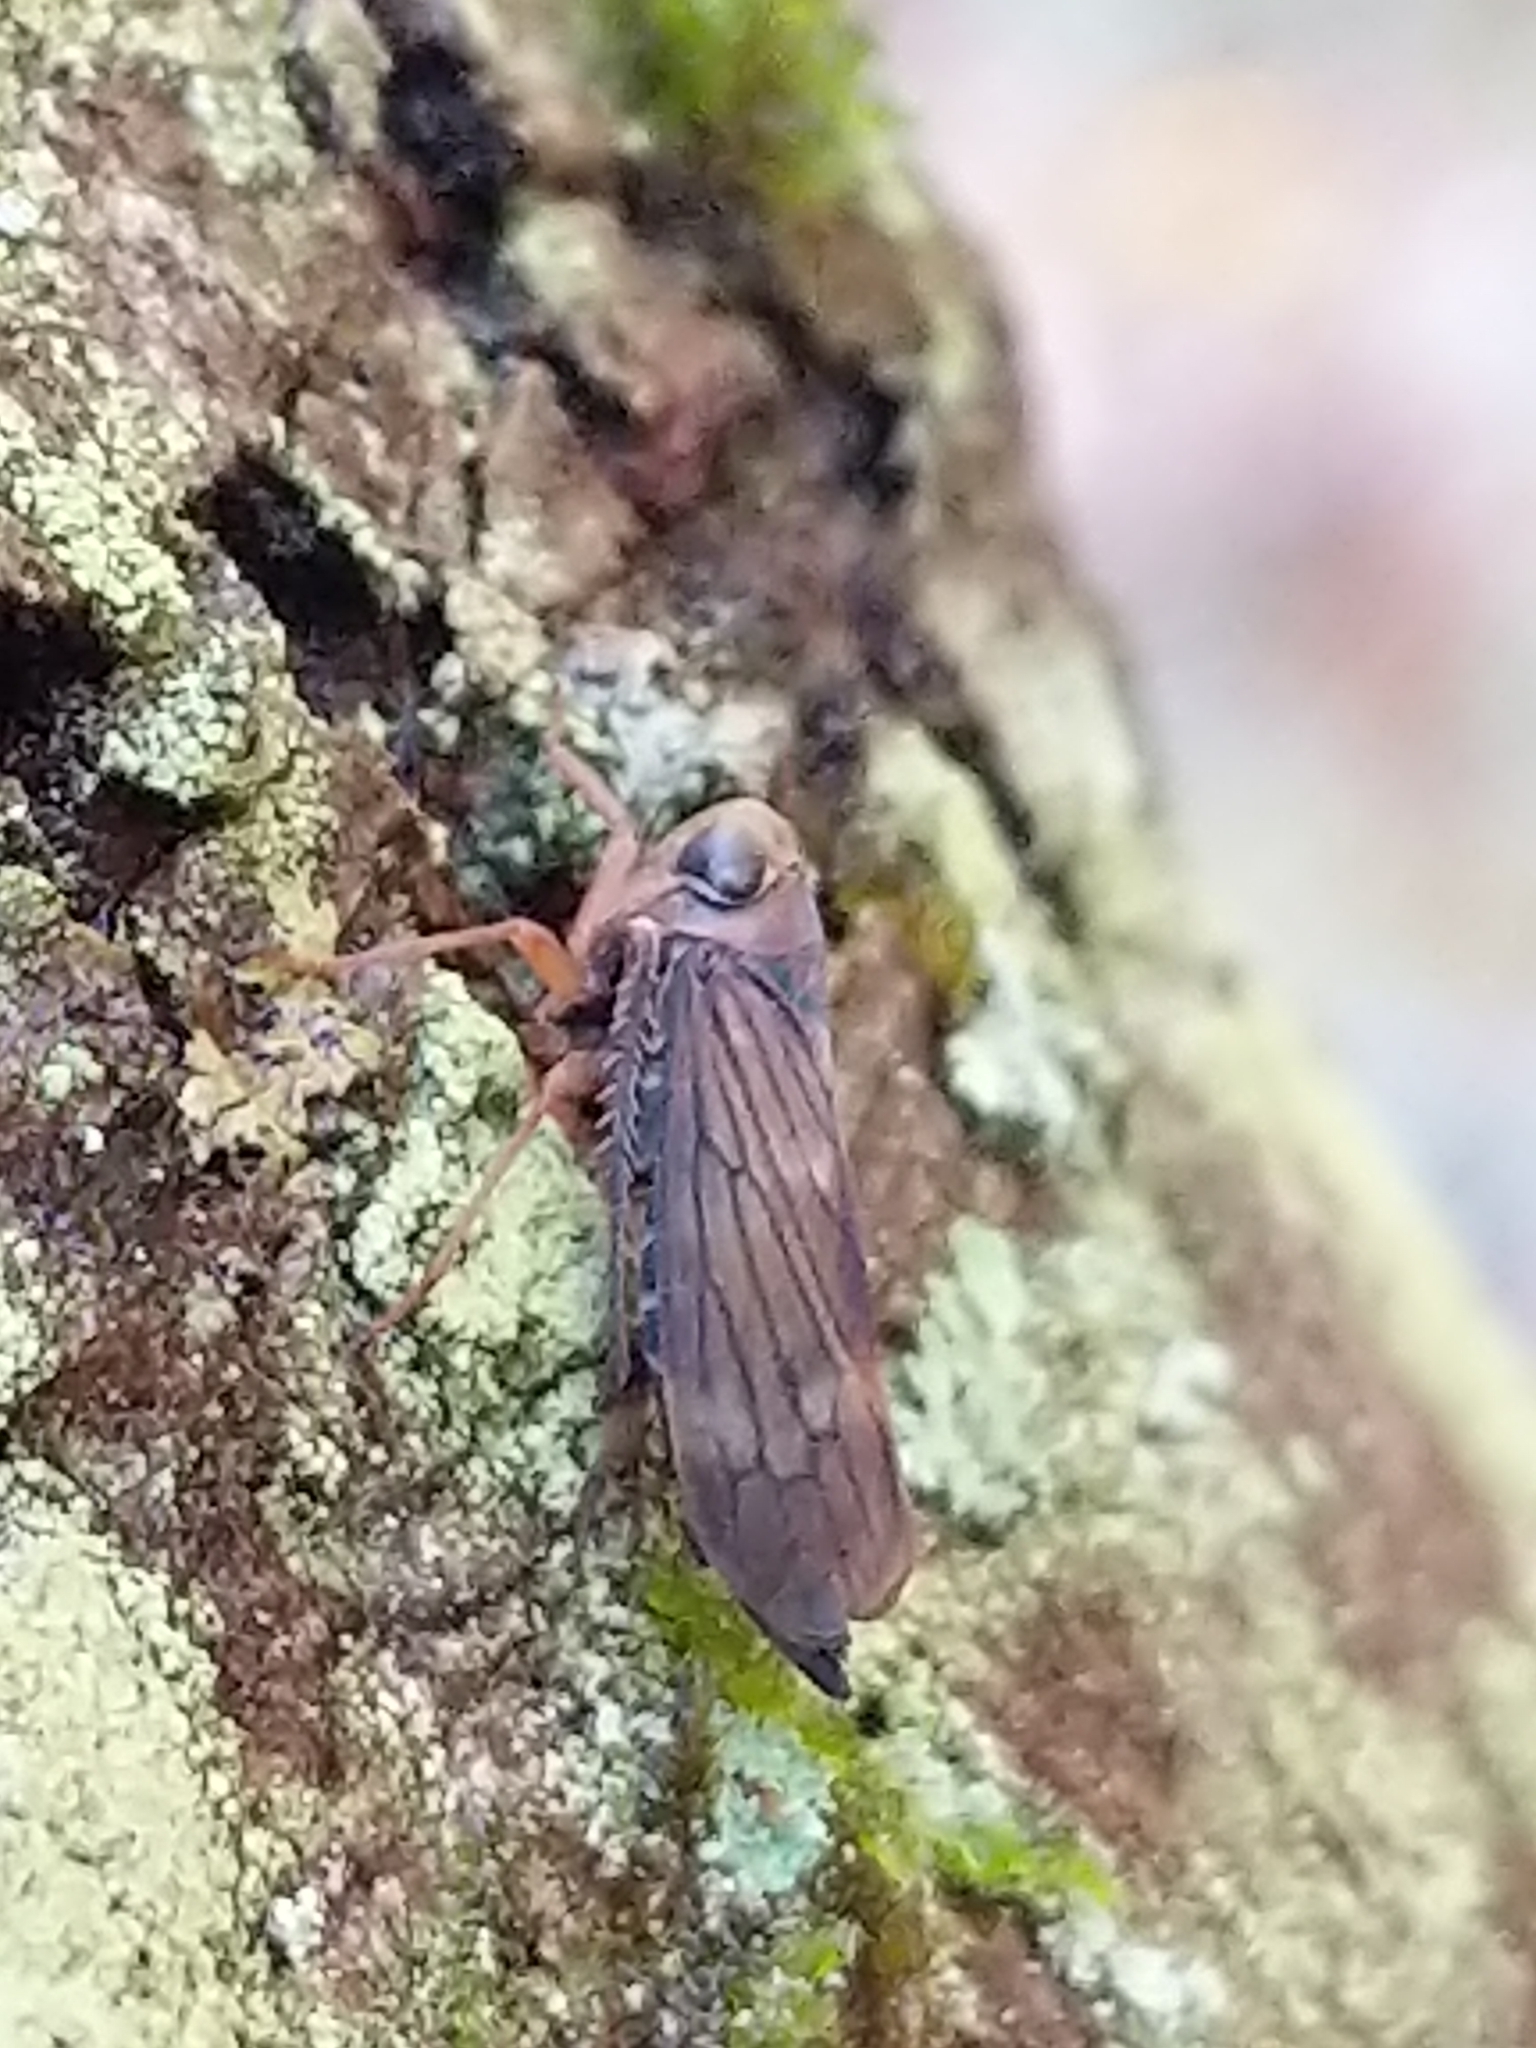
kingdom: Animalia
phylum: Arthropoda
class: Insecta
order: Hemiptera
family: Cicadellidae
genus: Jikradia
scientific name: Jikradia olitoria
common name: Coppery leafhopper
